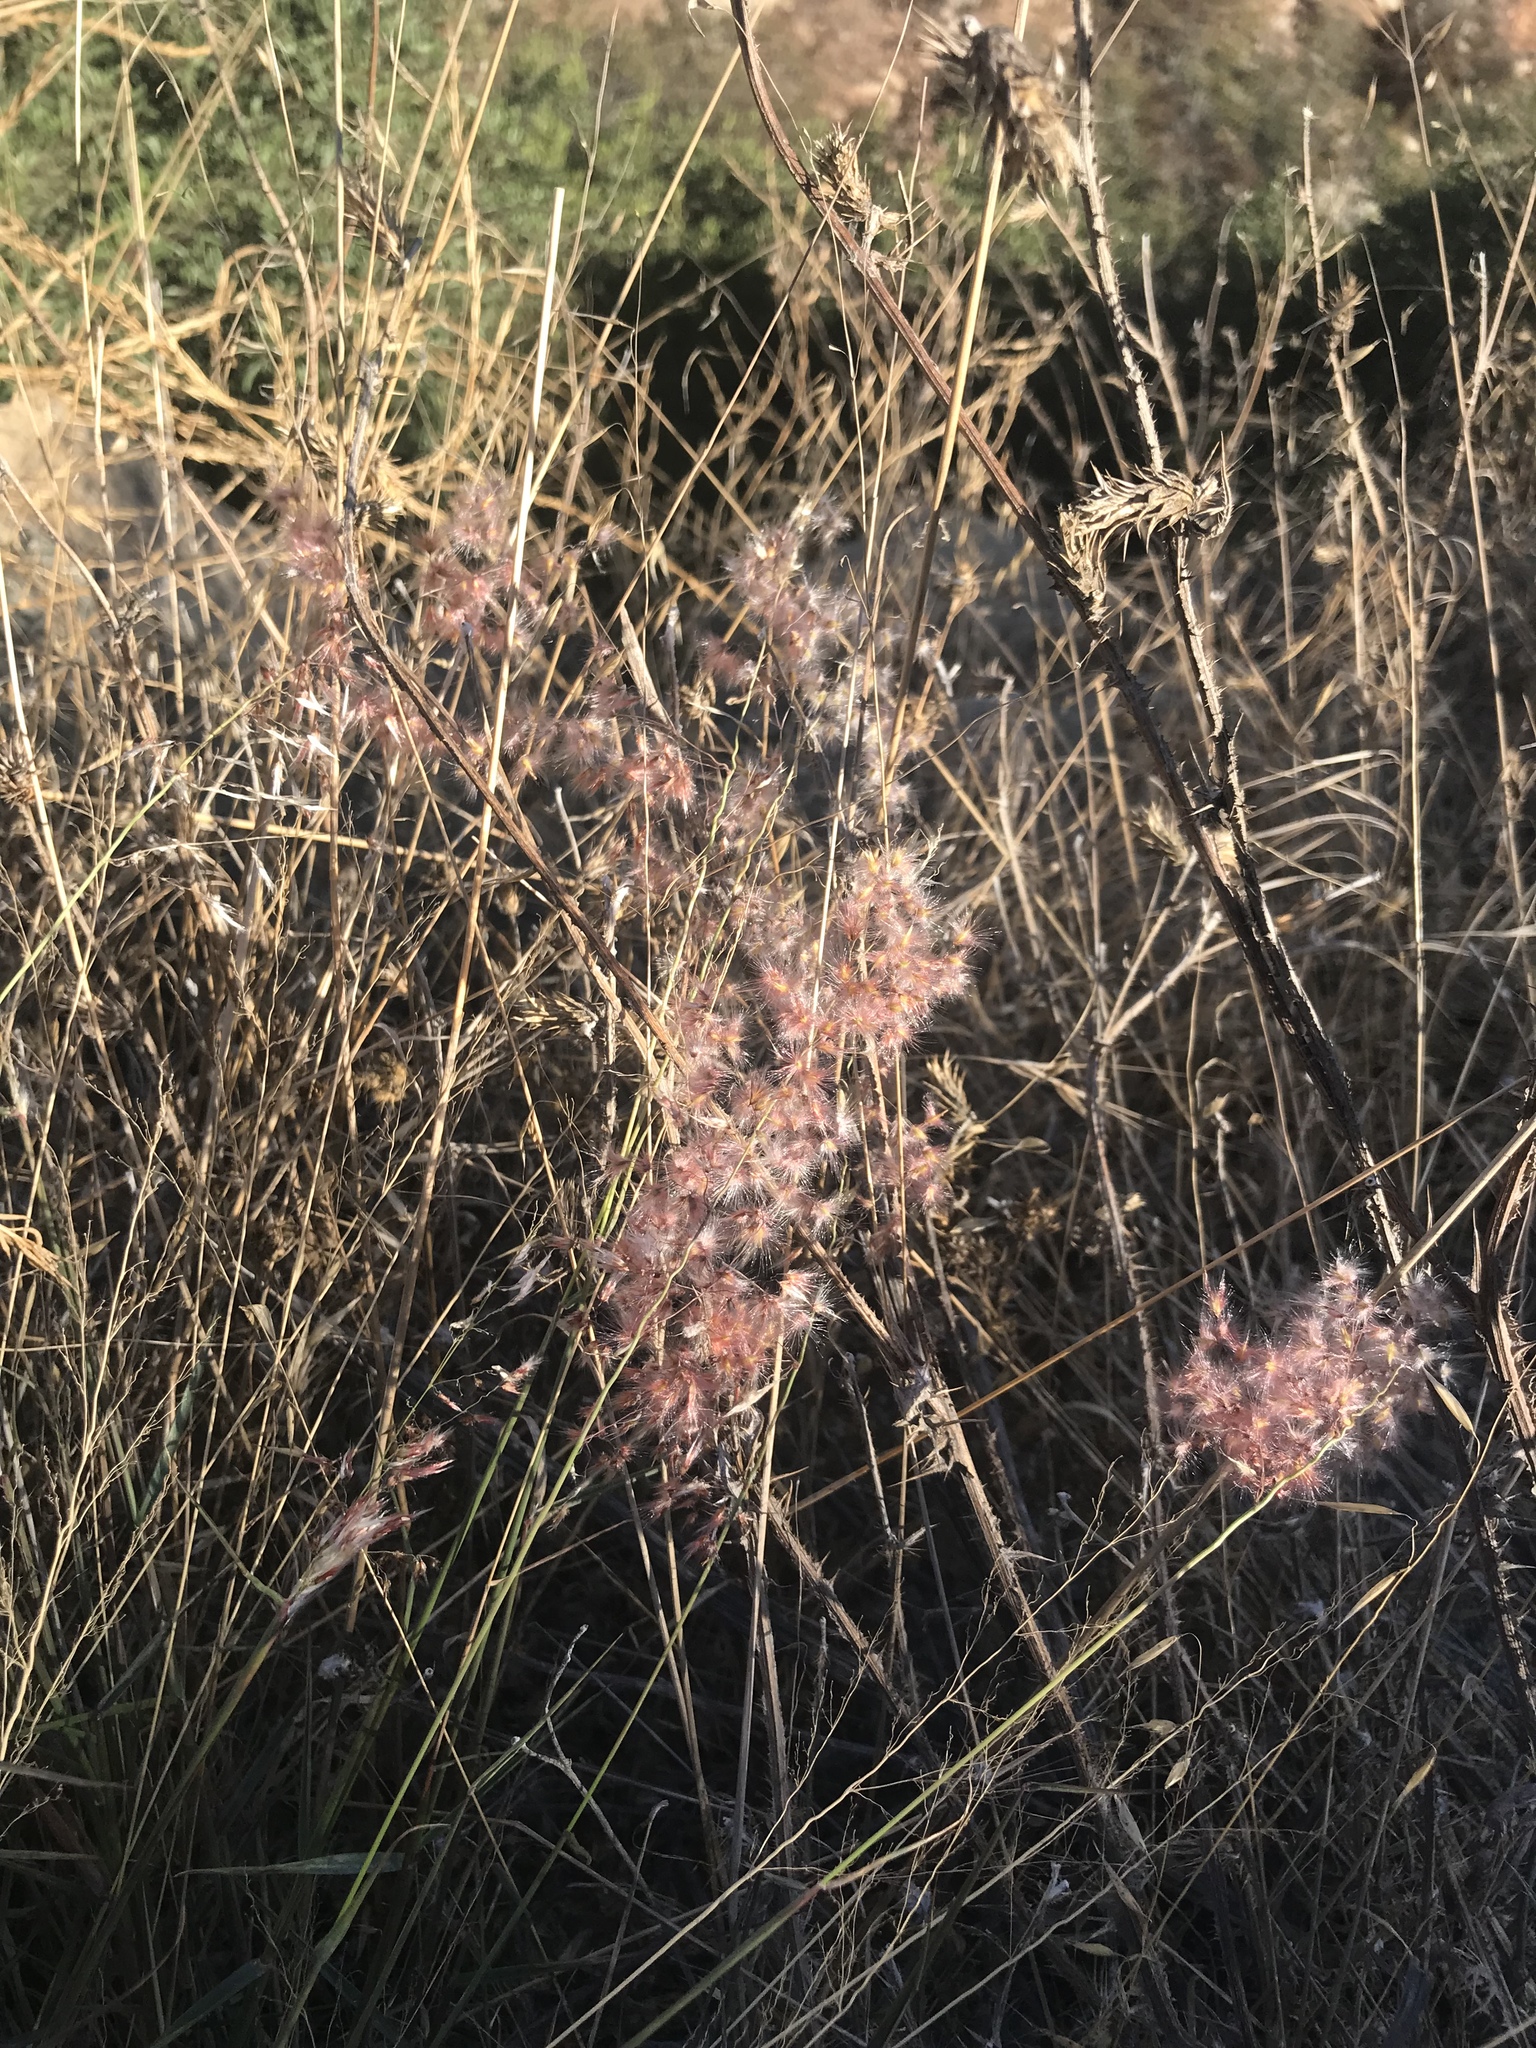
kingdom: Plantae
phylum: Tracheophyta
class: Liliopsida
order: Poales
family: Poaceae
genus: Melinis
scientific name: Melinis repens
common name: Rose natal grass
